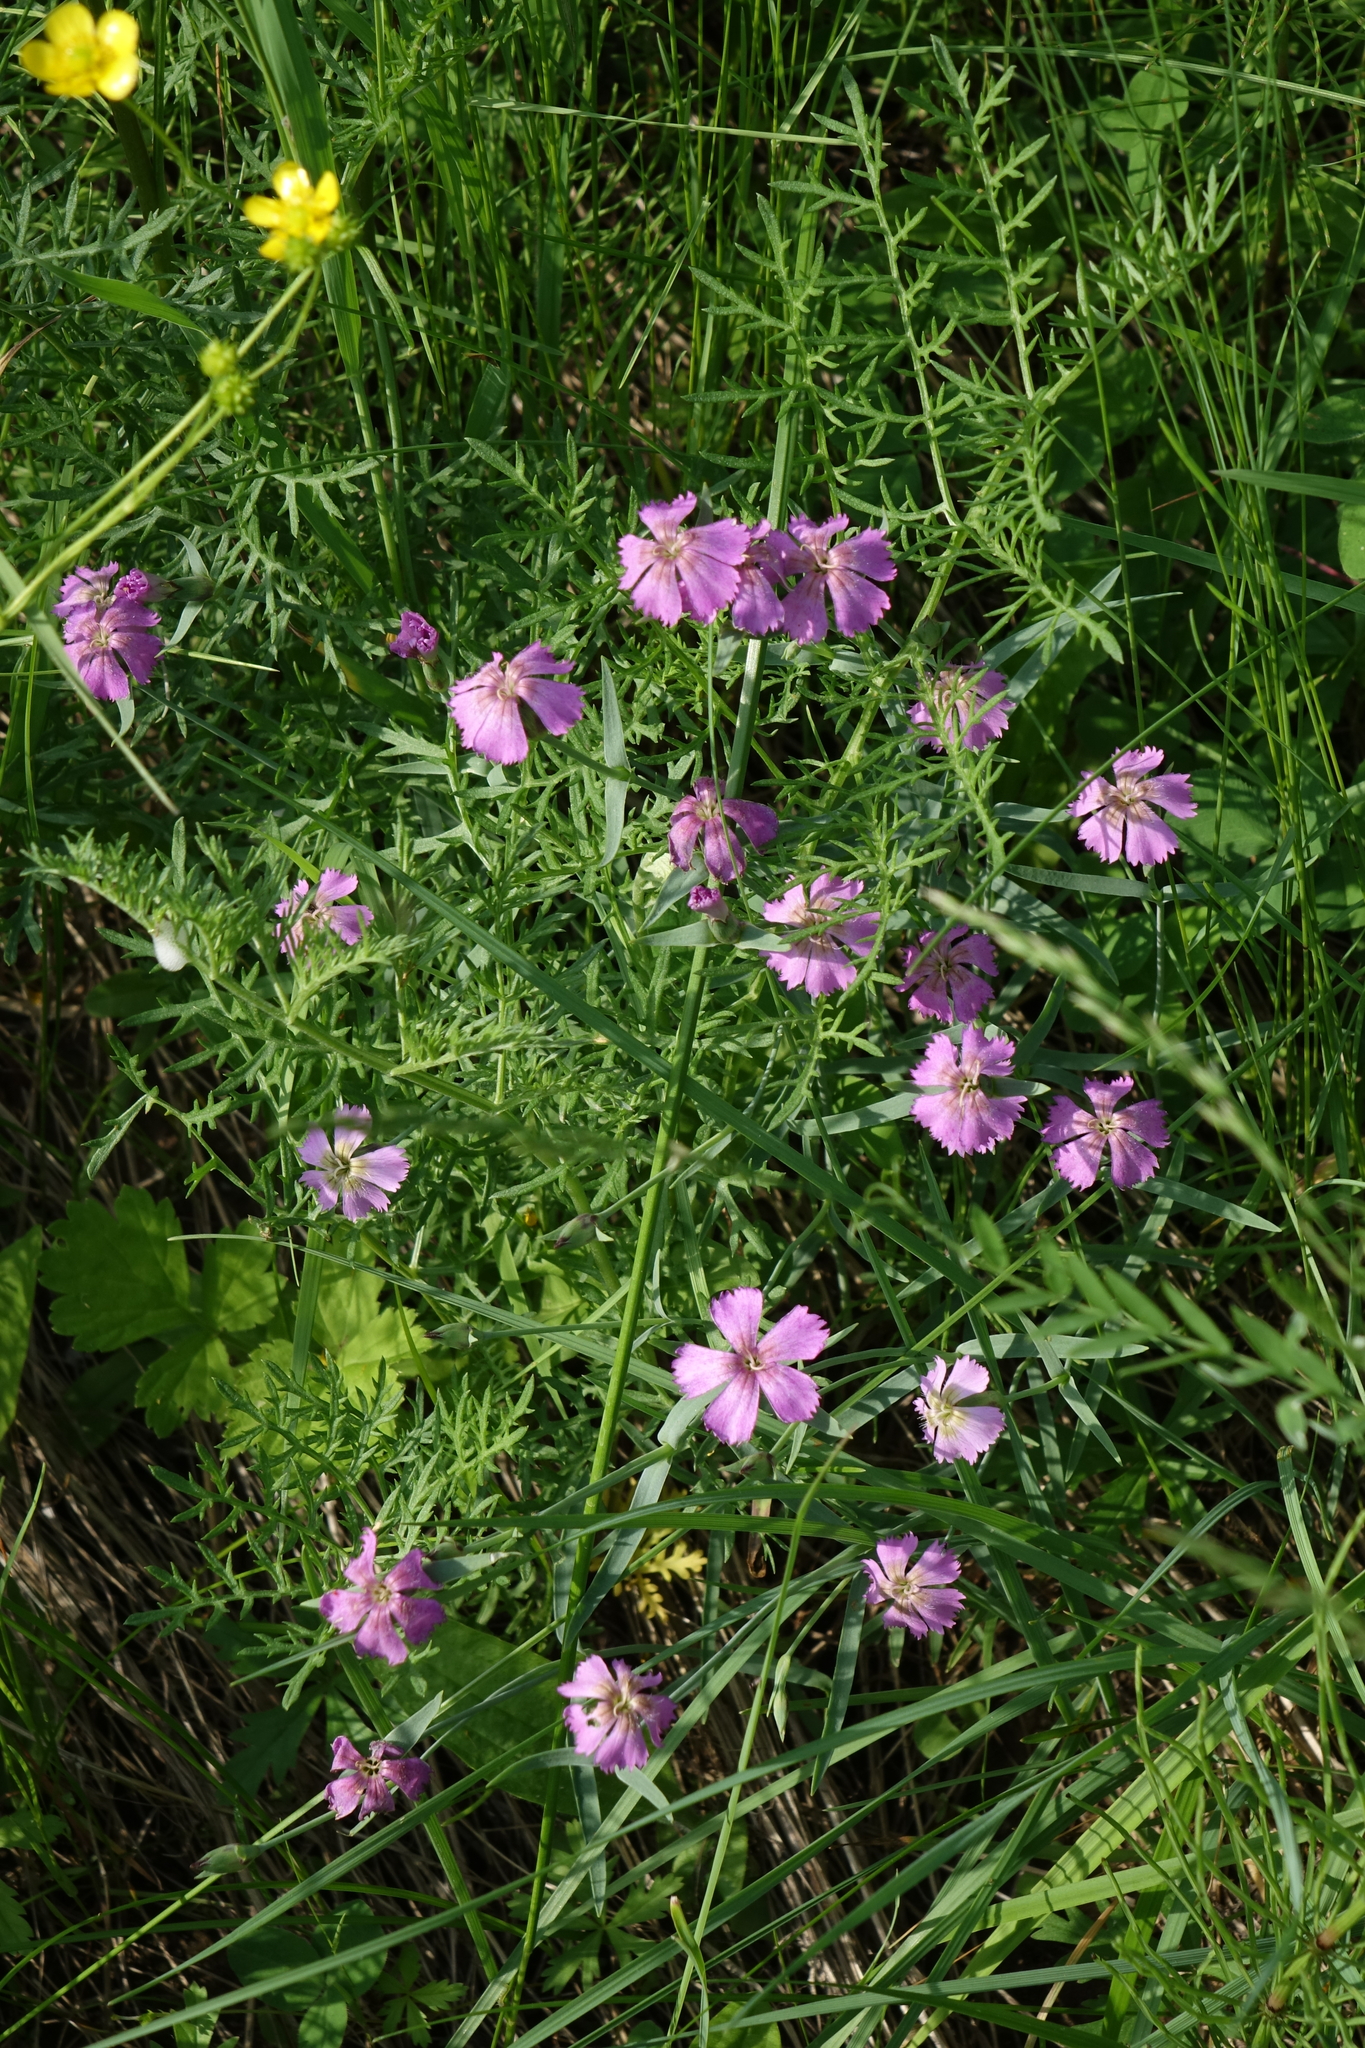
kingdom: Plantae
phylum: Tracheophyta
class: Magnoliopsida
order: Caryophyllales
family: Caryophyllaceae
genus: Dianthus
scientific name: Dianthus repens
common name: Northern pink
